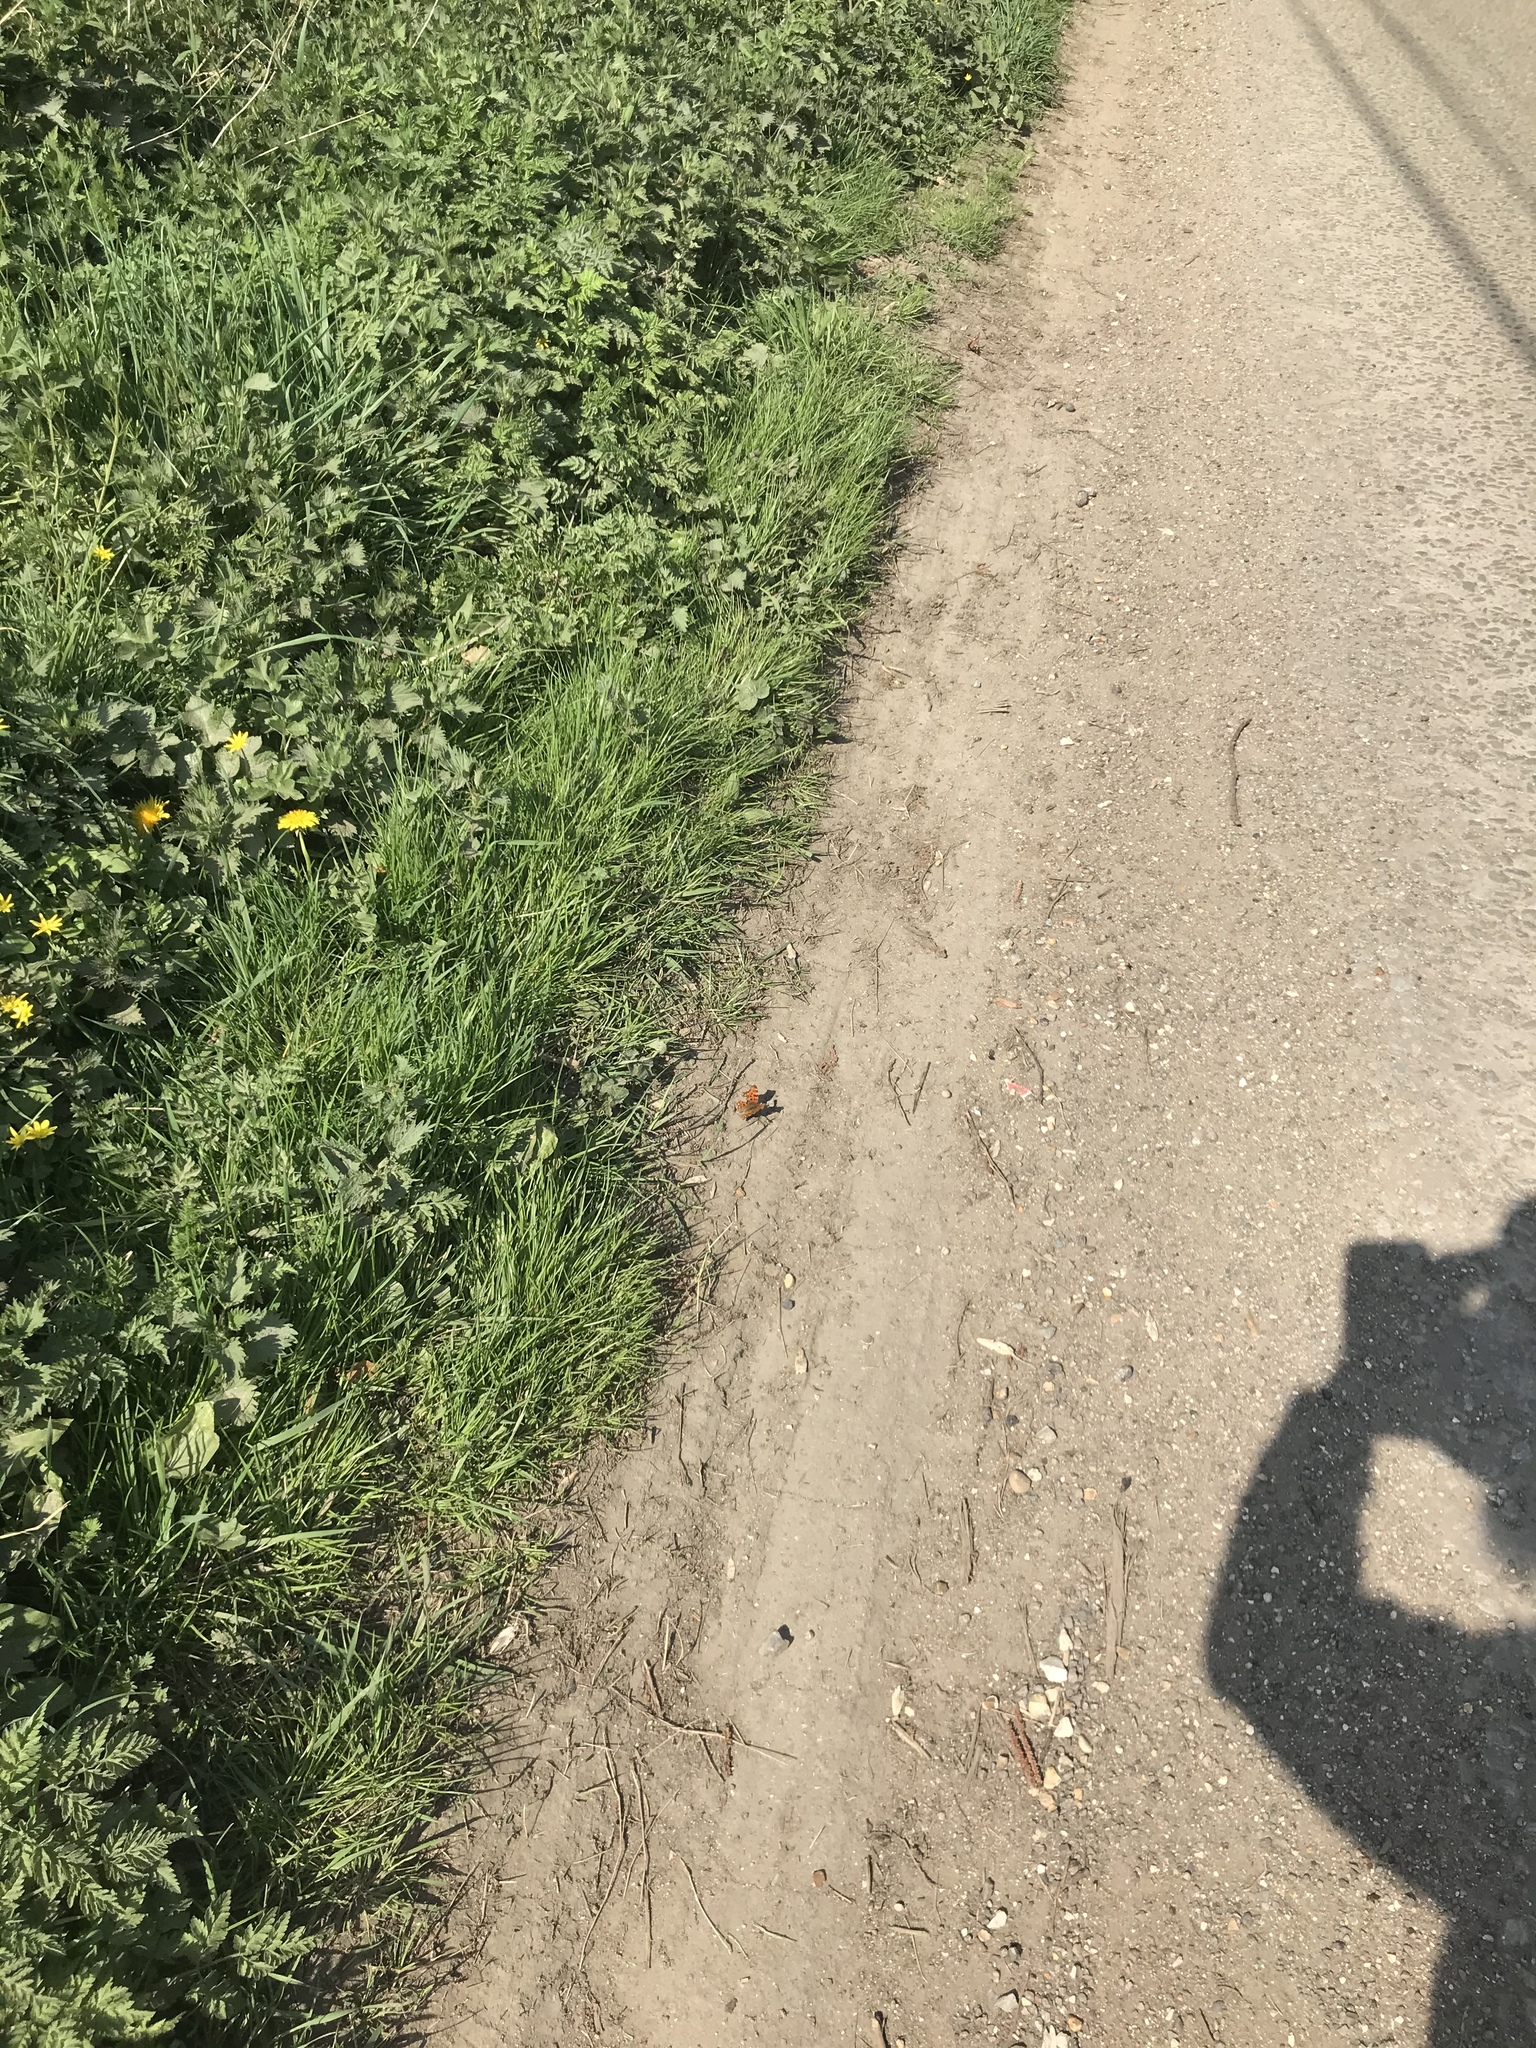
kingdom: Animalia
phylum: Arthropoda
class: Insecta
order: Lepidoptera
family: Nymphalidae
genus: Polygonia
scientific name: Polygonia c-album
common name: Comma
